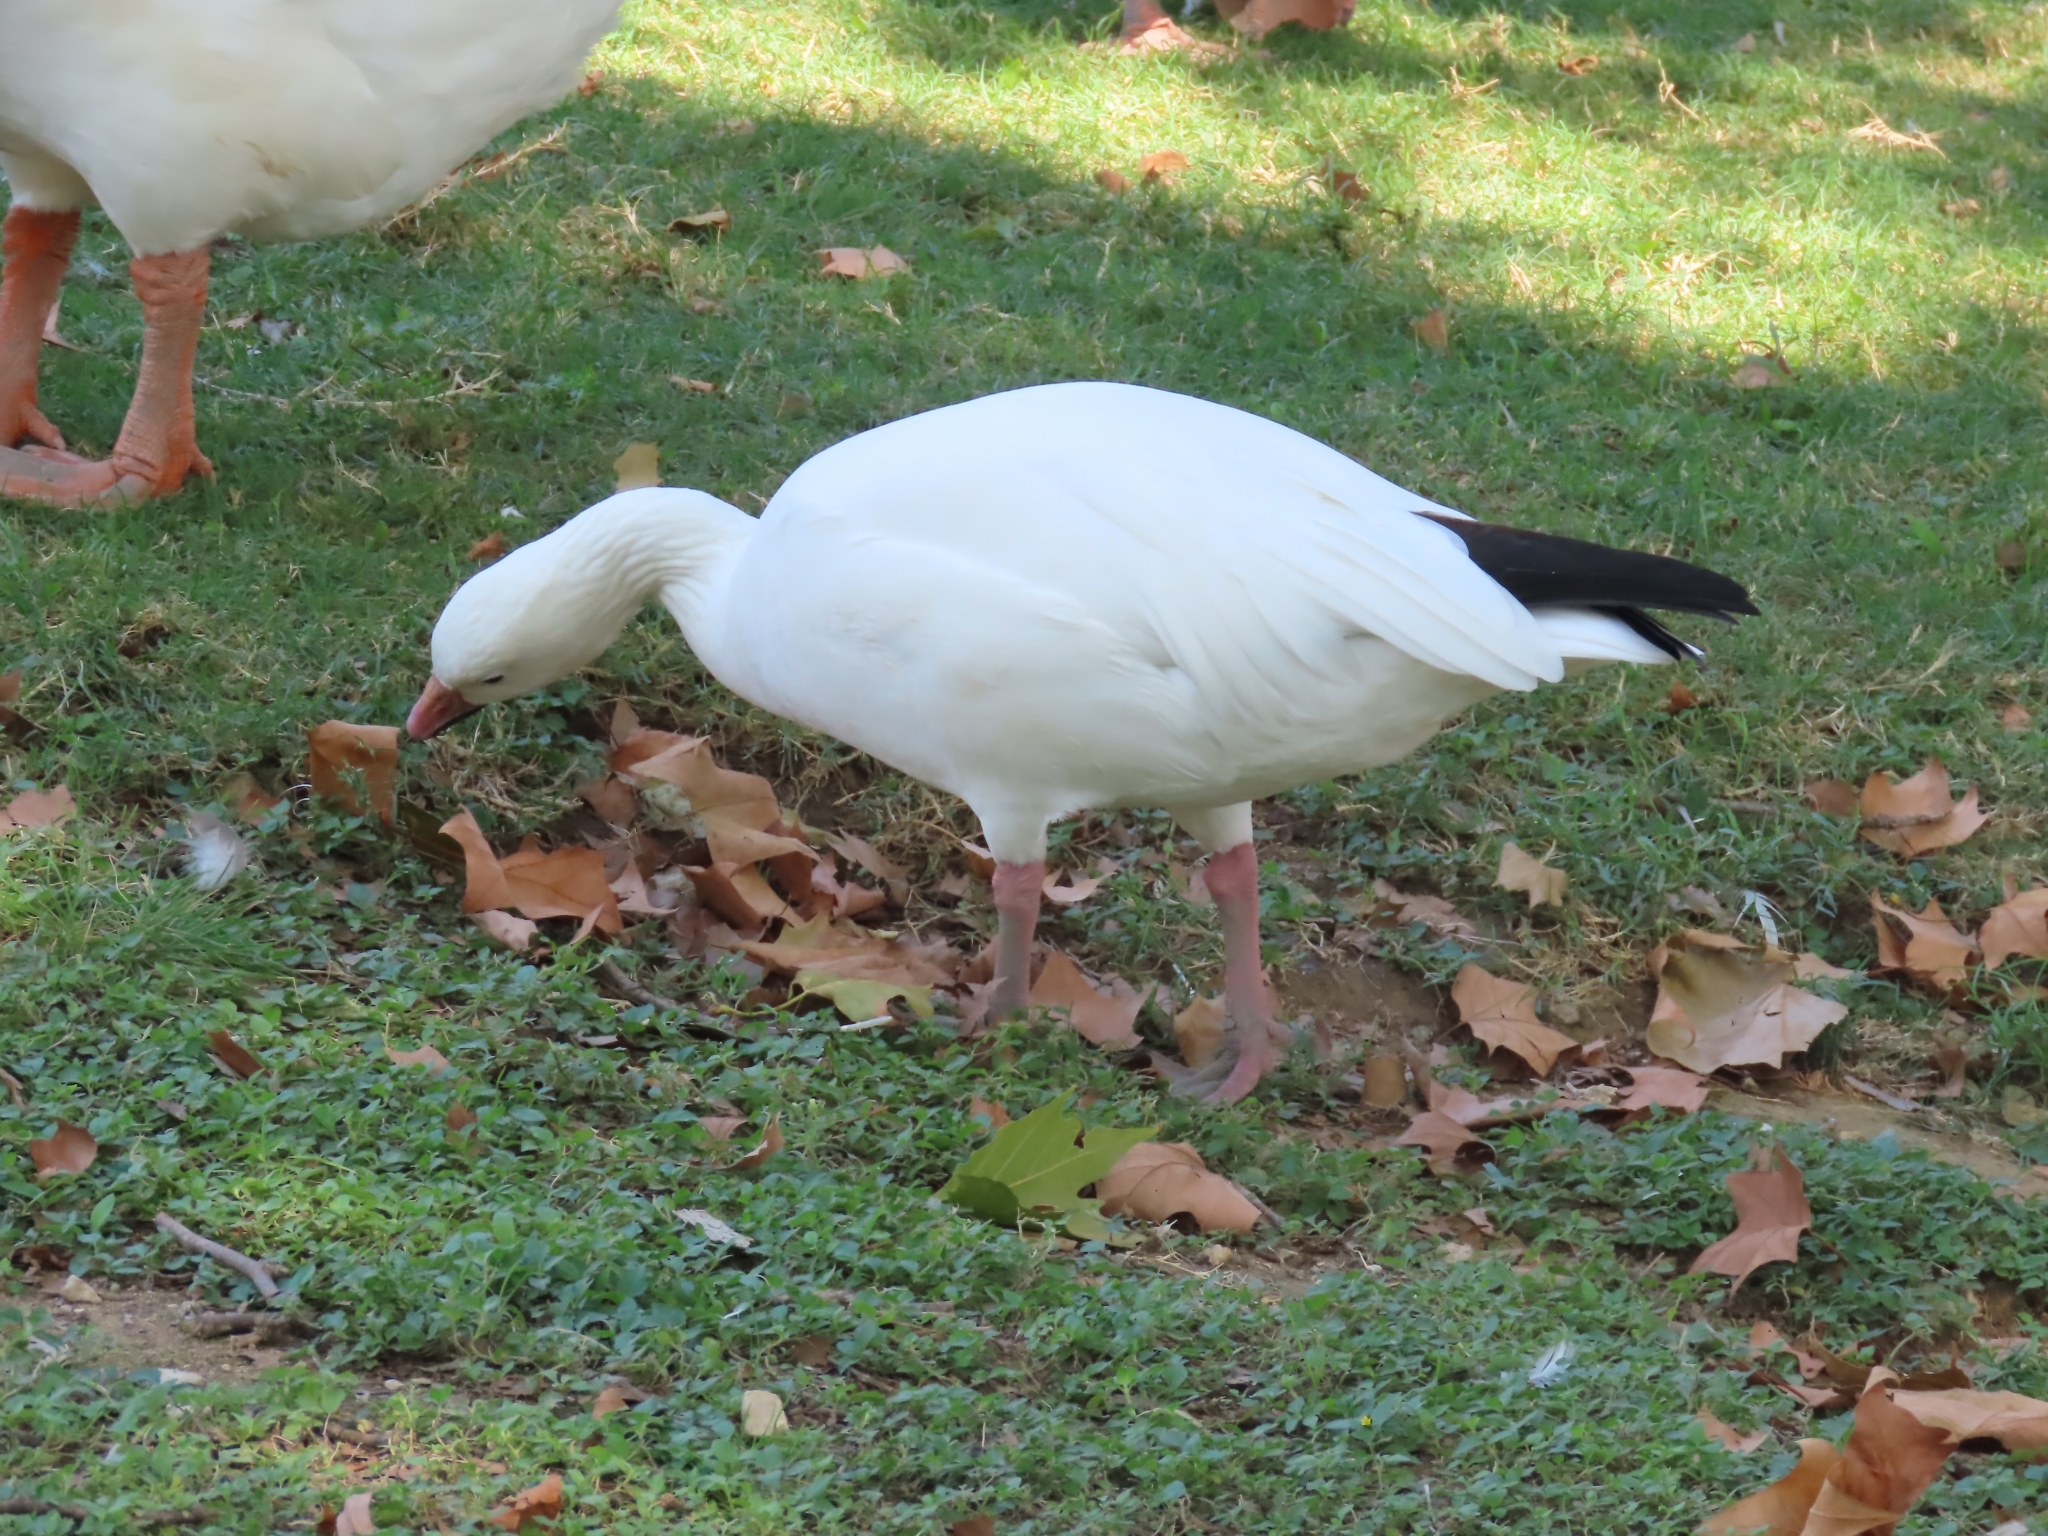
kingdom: Animalia
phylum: Chordata
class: Aves
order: Anseriformes
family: Anatidae
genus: Anser
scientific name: Anser caerulescens
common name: Snow goose
